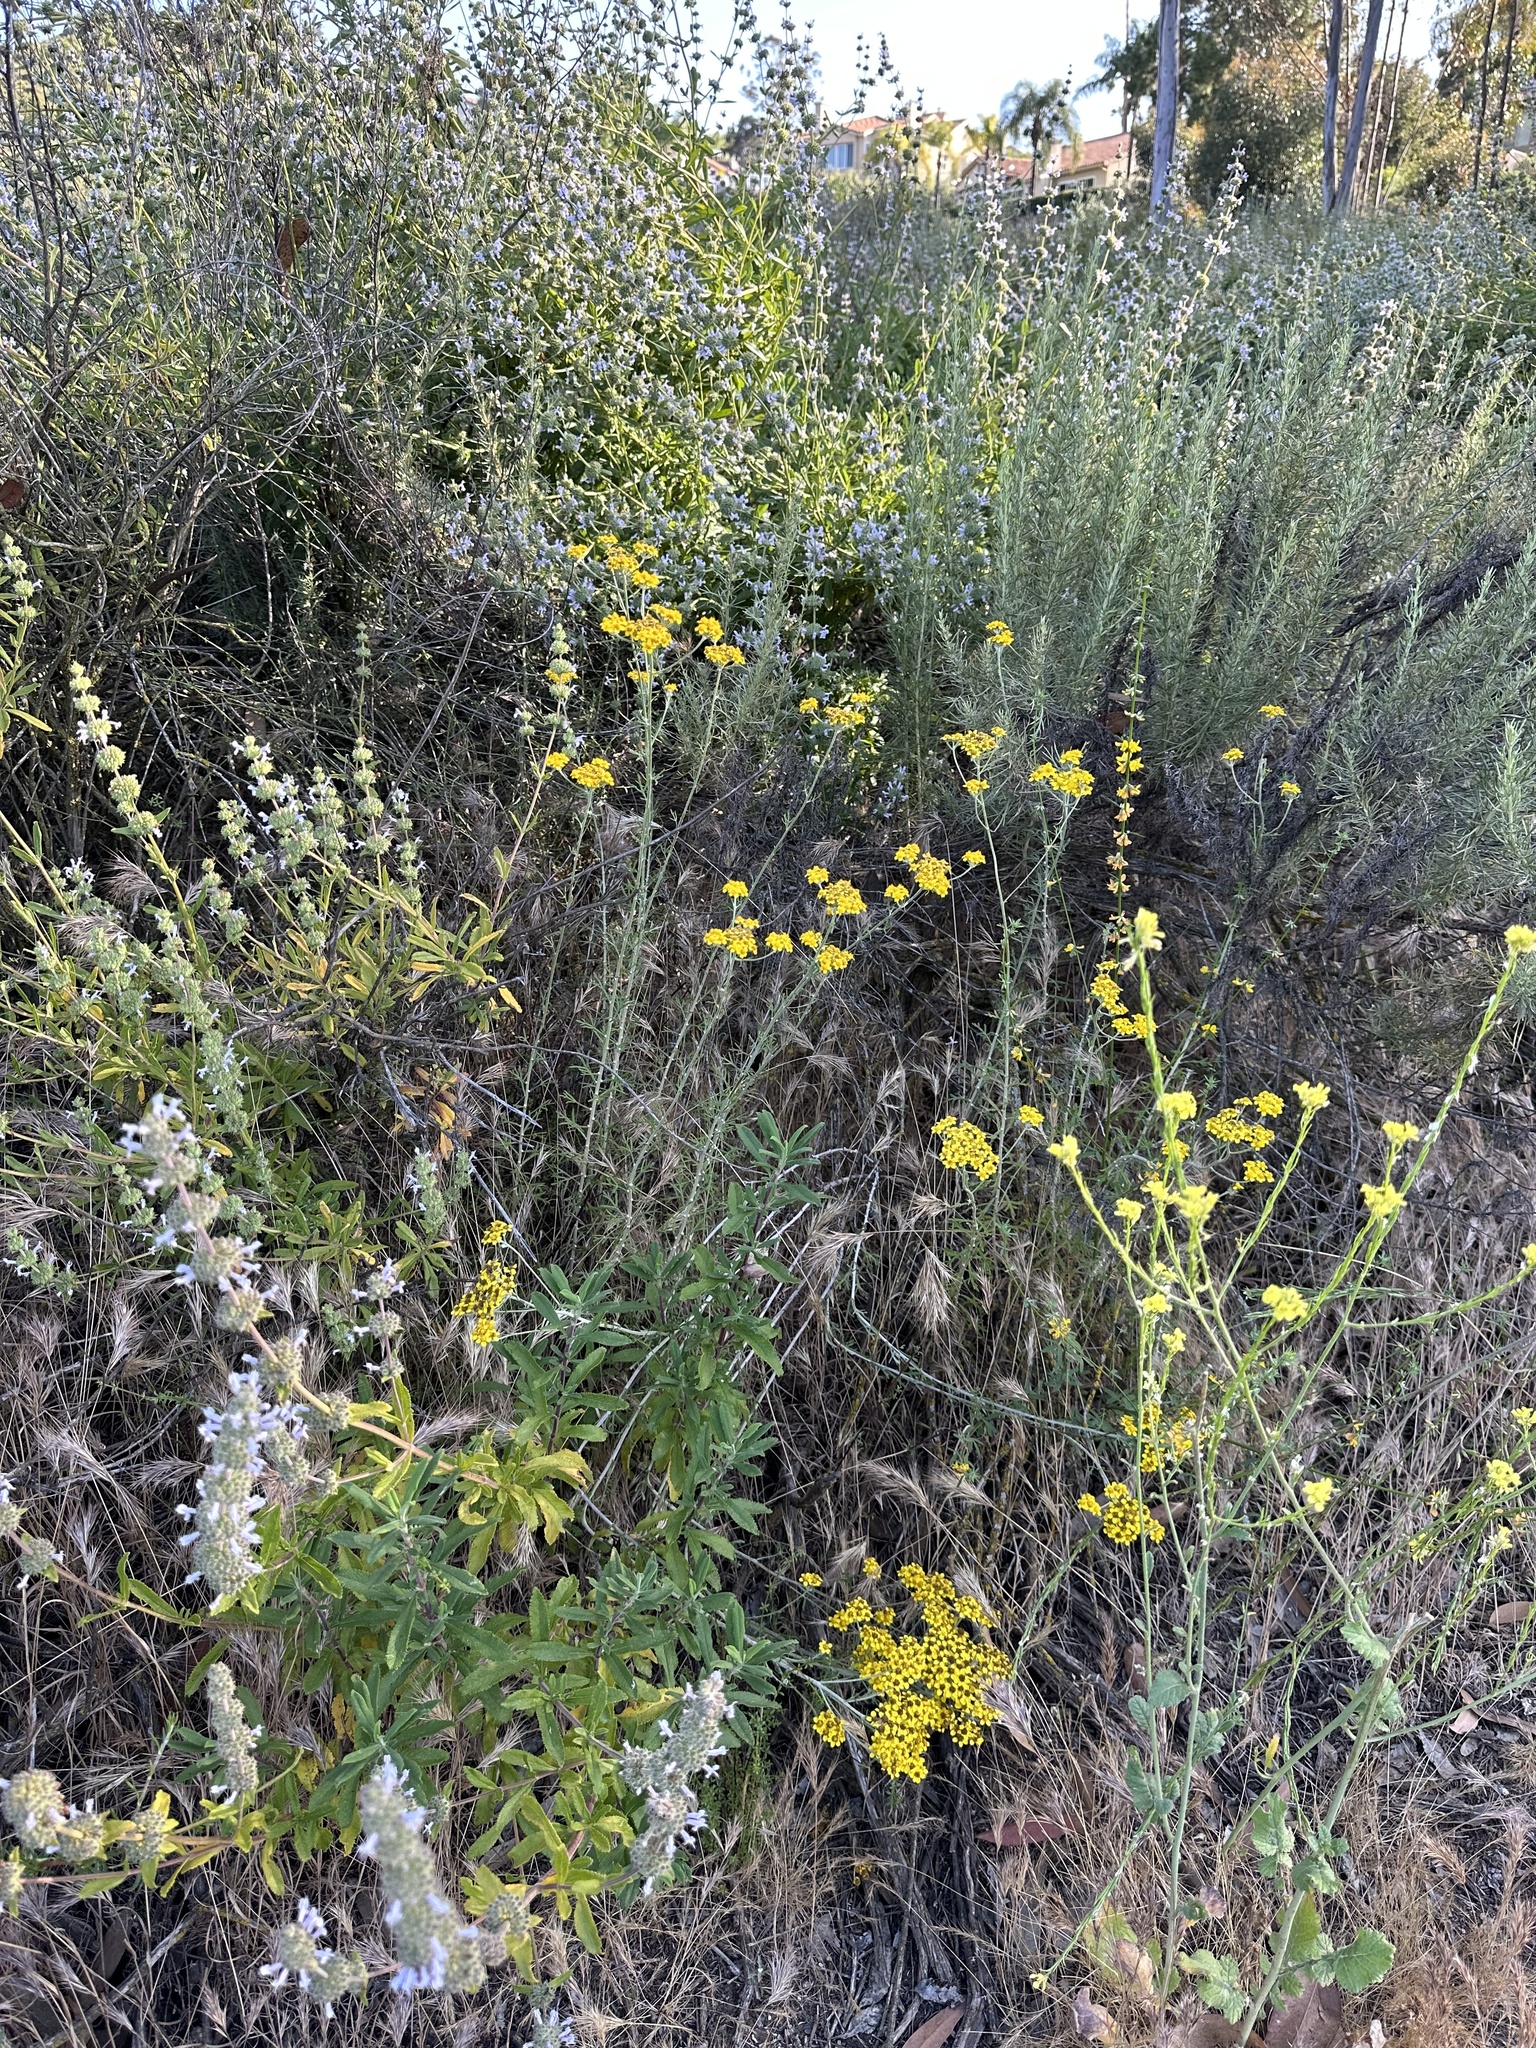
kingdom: Plantae
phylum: Tracheophyta
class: Magnoliopsida
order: Asterales
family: Asteraceae
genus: Eriophyllum
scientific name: Eriophyllum confertiflorum
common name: Golden-yarrow
